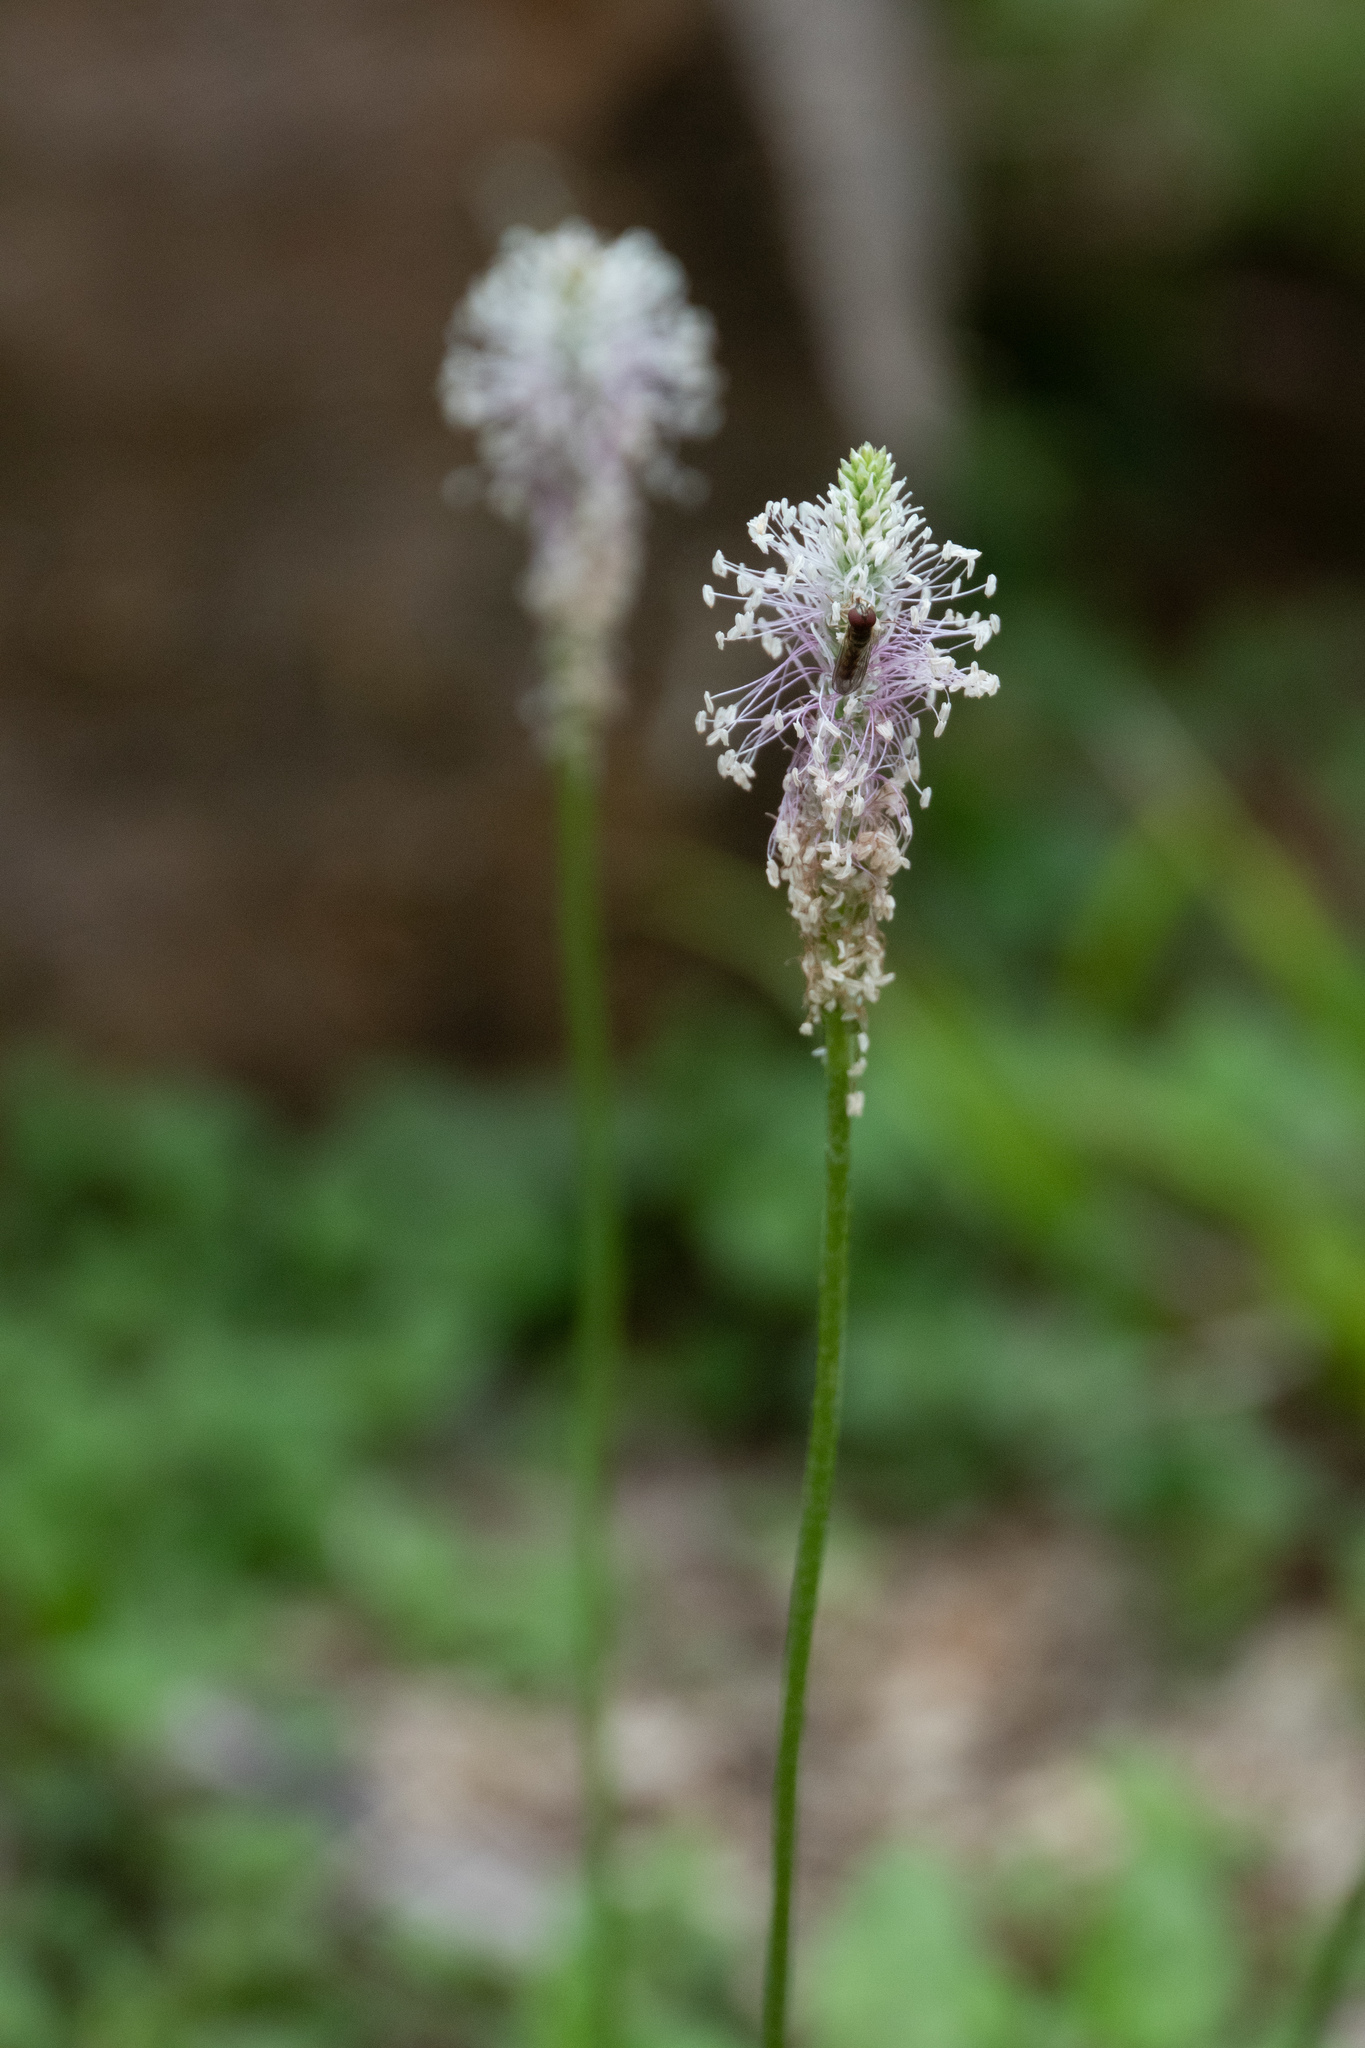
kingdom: Plantae
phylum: Tracheophyta
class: Magnoliopsida
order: Lamiales
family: Plantaginaceae
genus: Plantago
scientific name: Plantago media
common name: Hoary plantain
